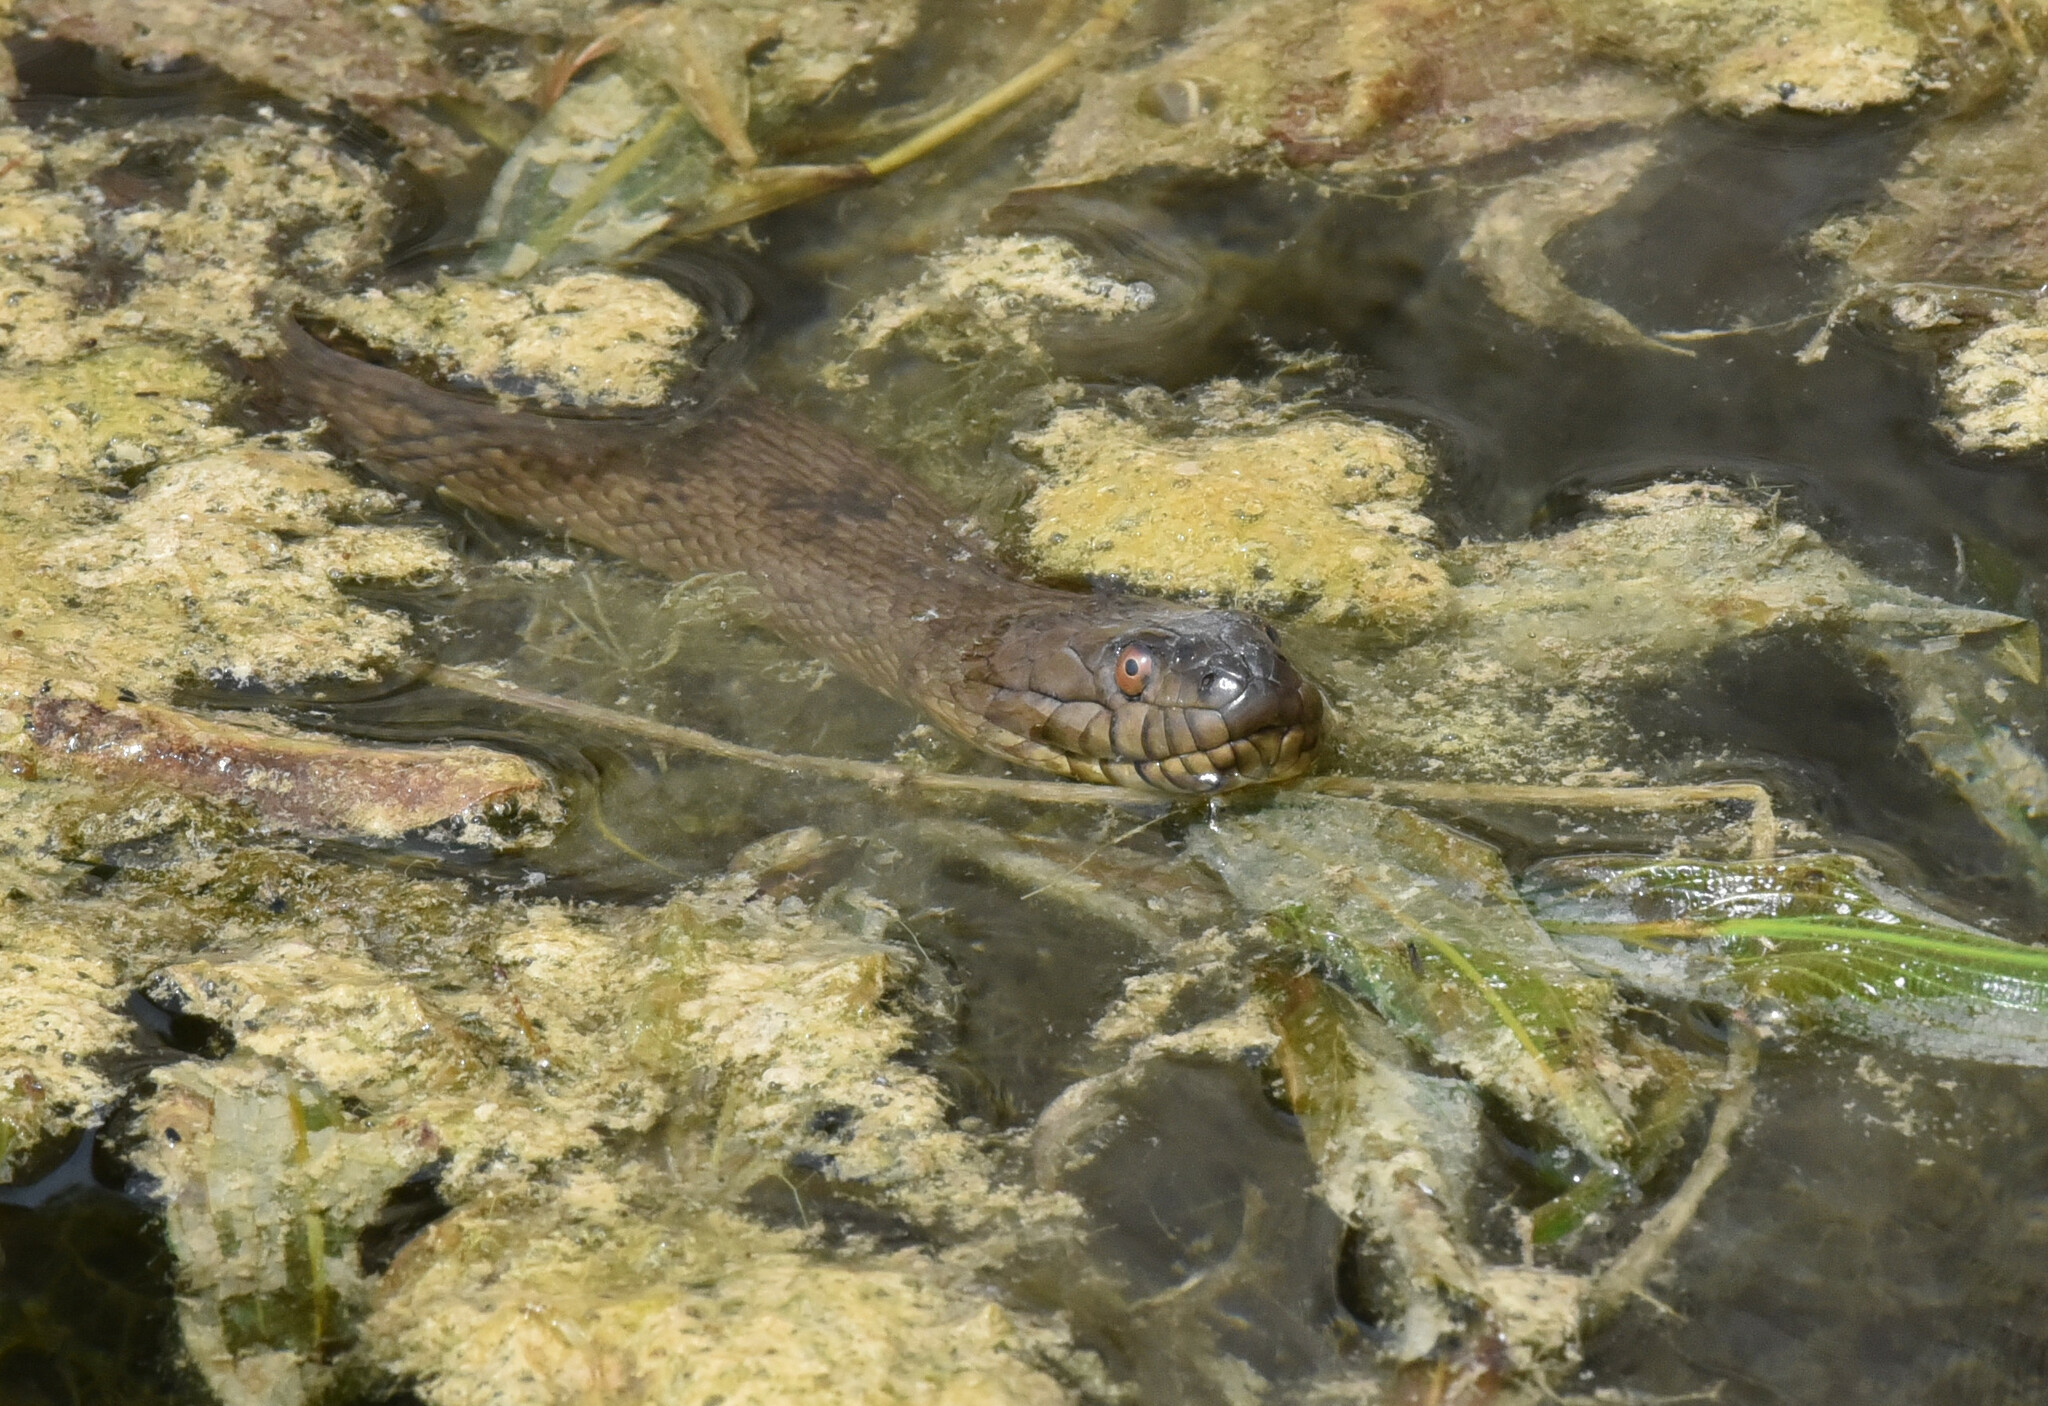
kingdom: Animalia
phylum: Chordata
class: Squamata
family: Colubridae
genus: Nerodia
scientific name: Nerodia rhombifer
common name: Diamondback water snake
